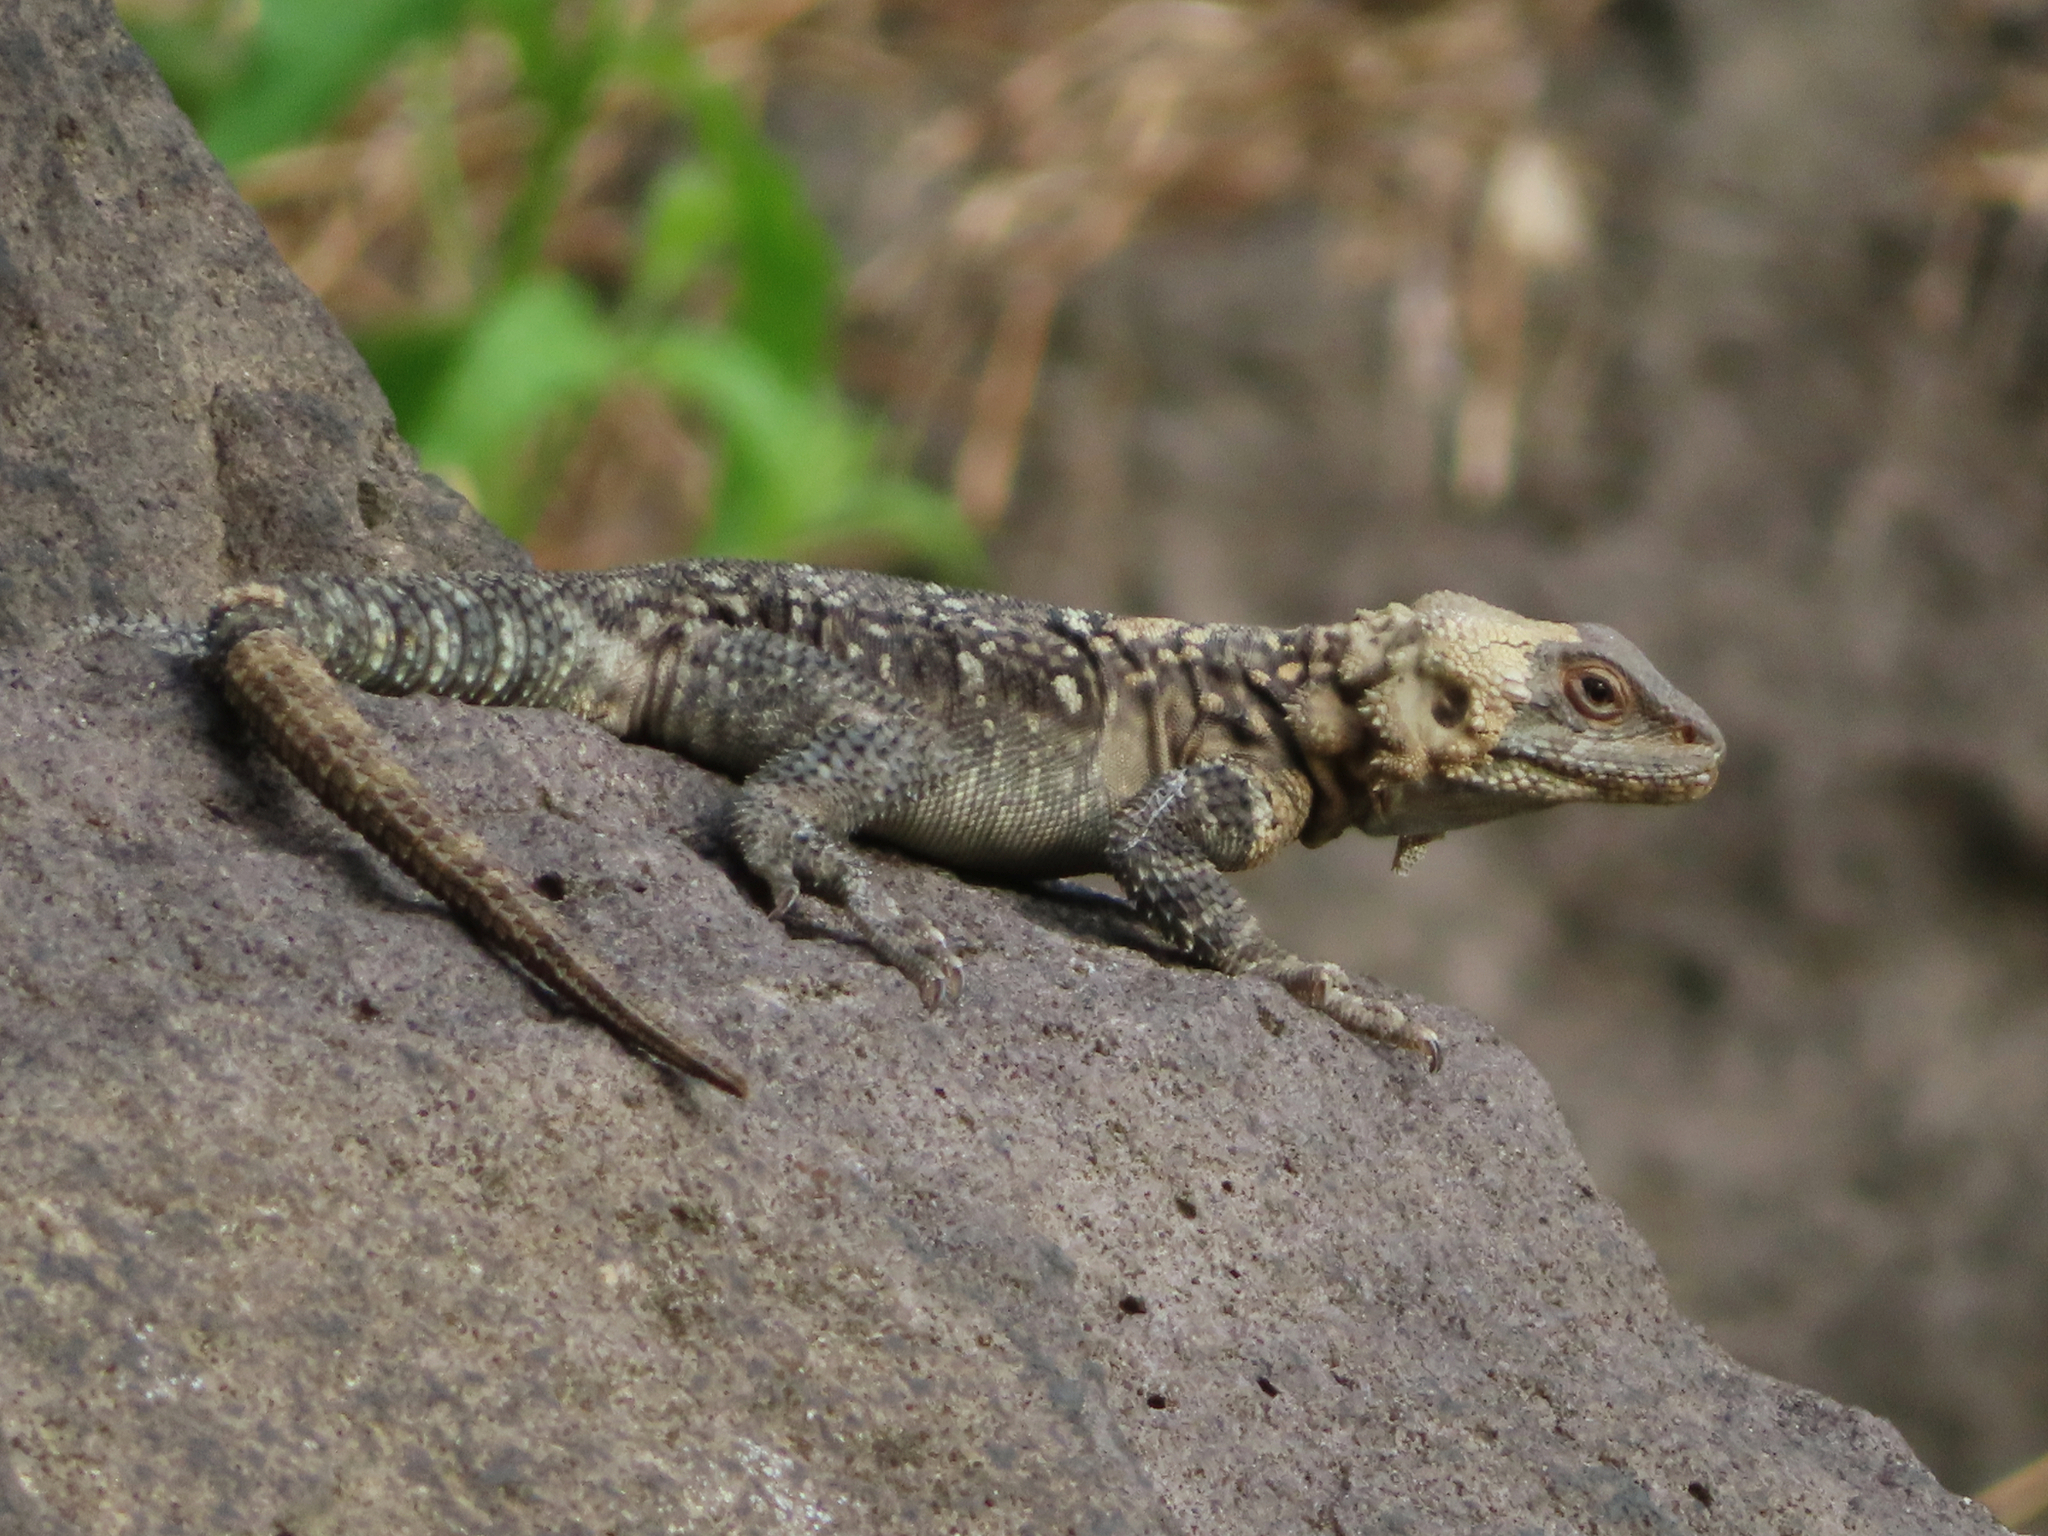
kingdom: Animalia
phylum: Chordata
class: Squamata
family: Agamidae
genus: Paralaudakia
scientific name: Paralaudakia caucasia
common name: Caucasian agama
